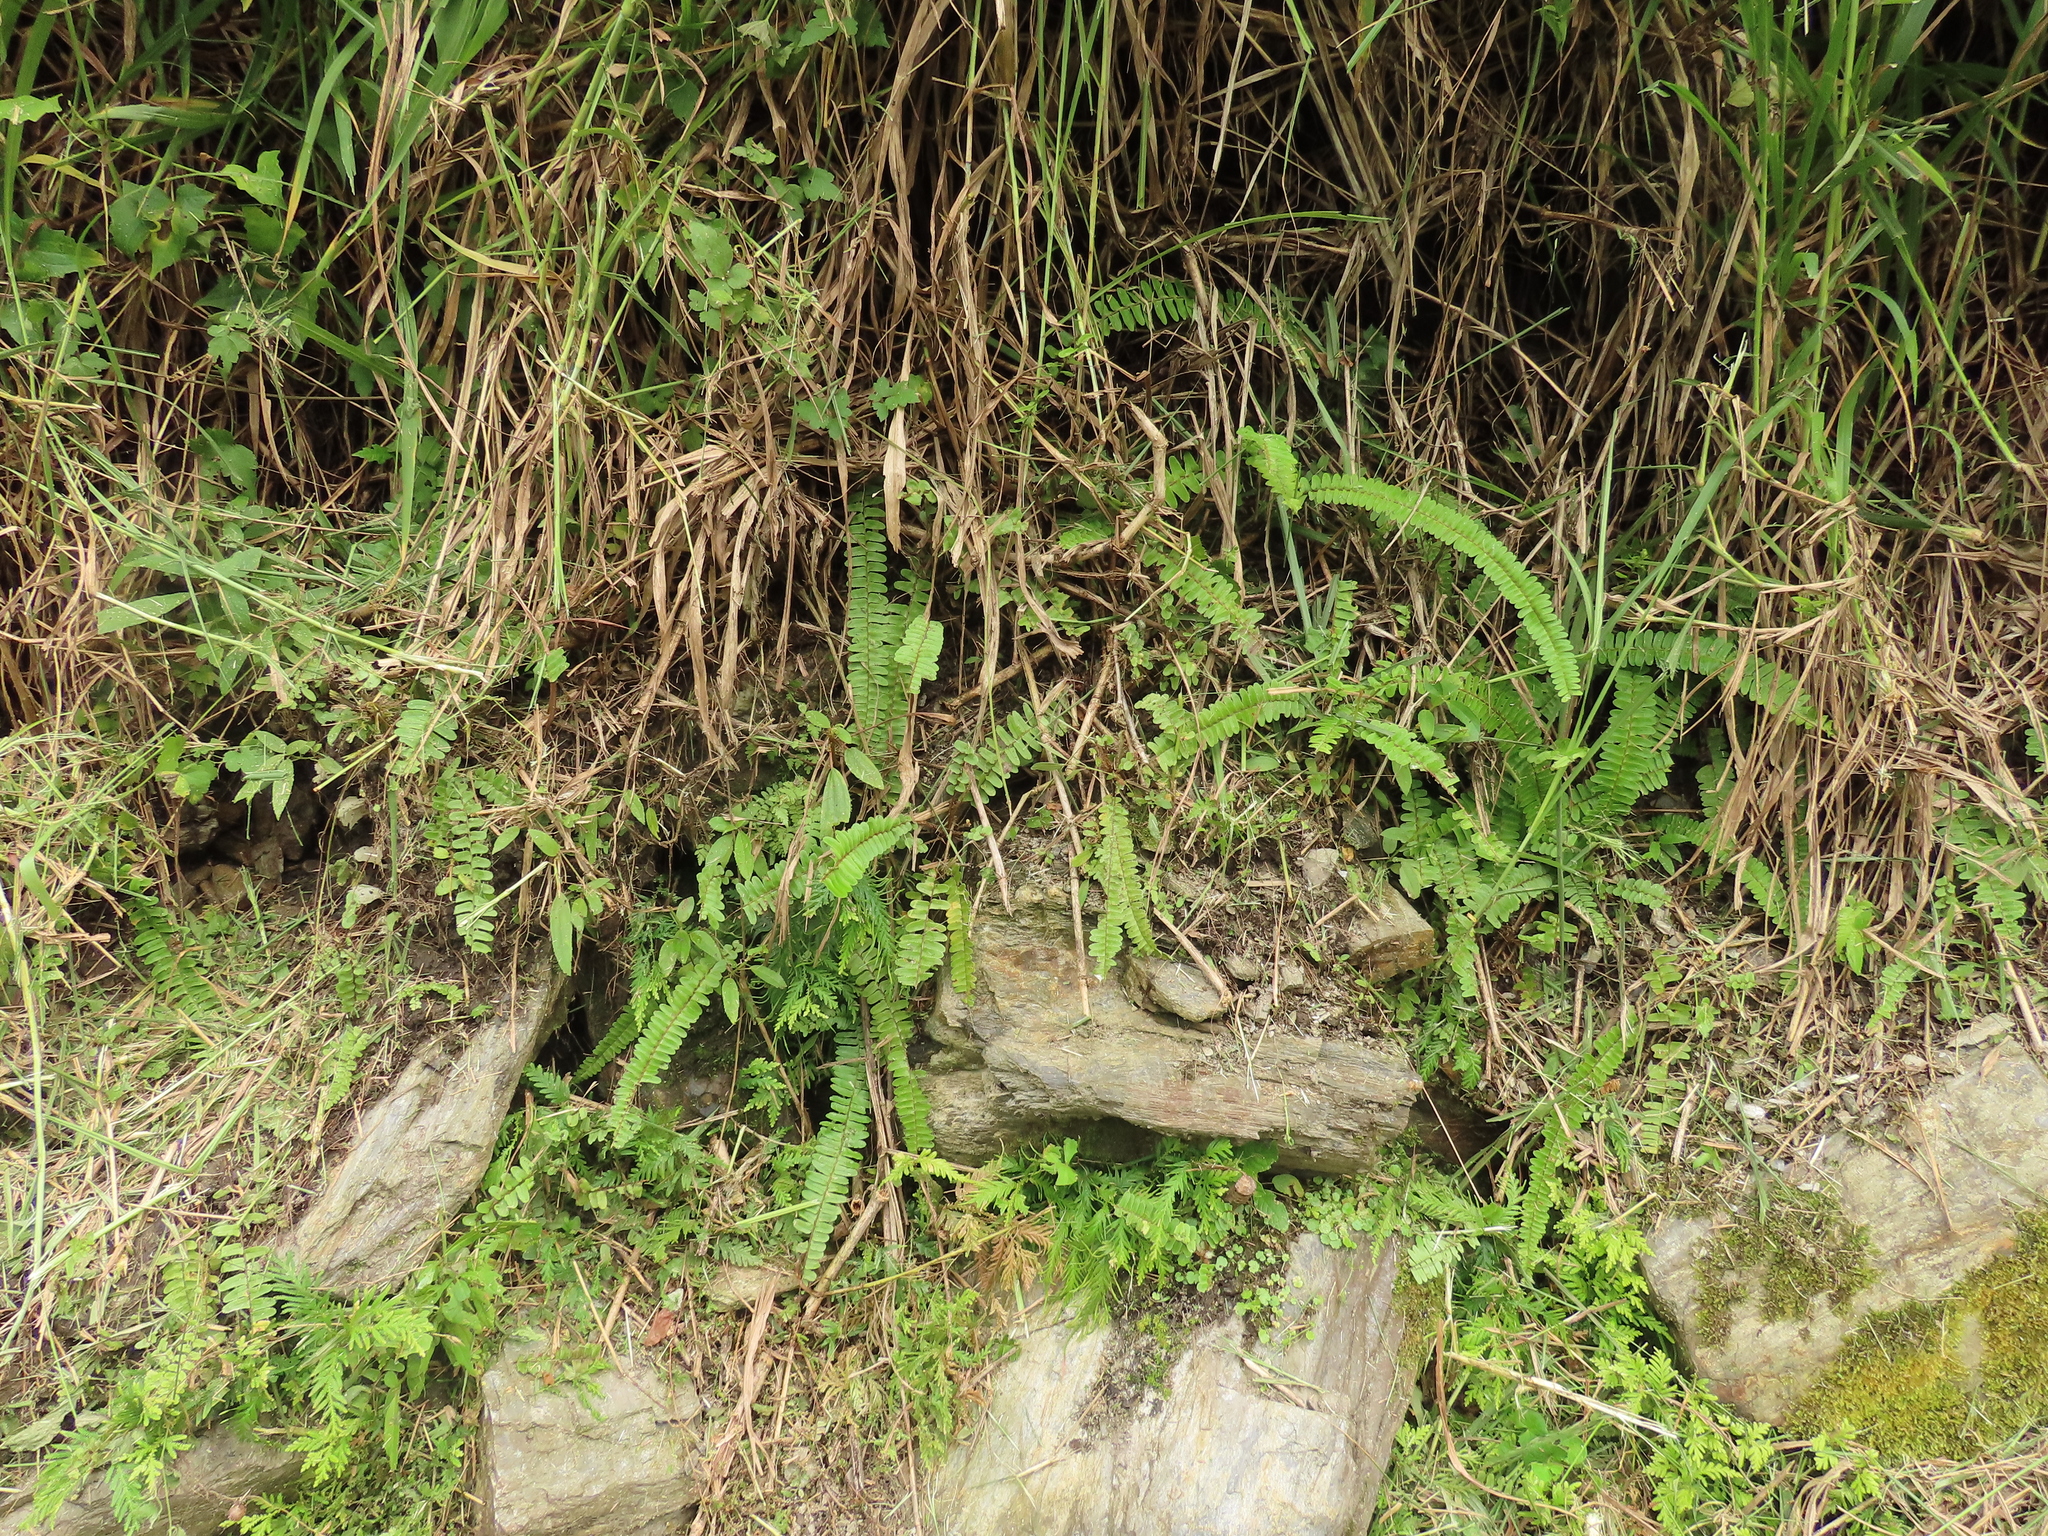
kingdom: Plantae
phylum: Tracheophyta
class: Polypodiopsida
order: Polypodiales
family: Nephrolepidaceae
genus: Nephrolepis
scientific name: Nephrolepis cordifolia
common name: Narrow swordfern
